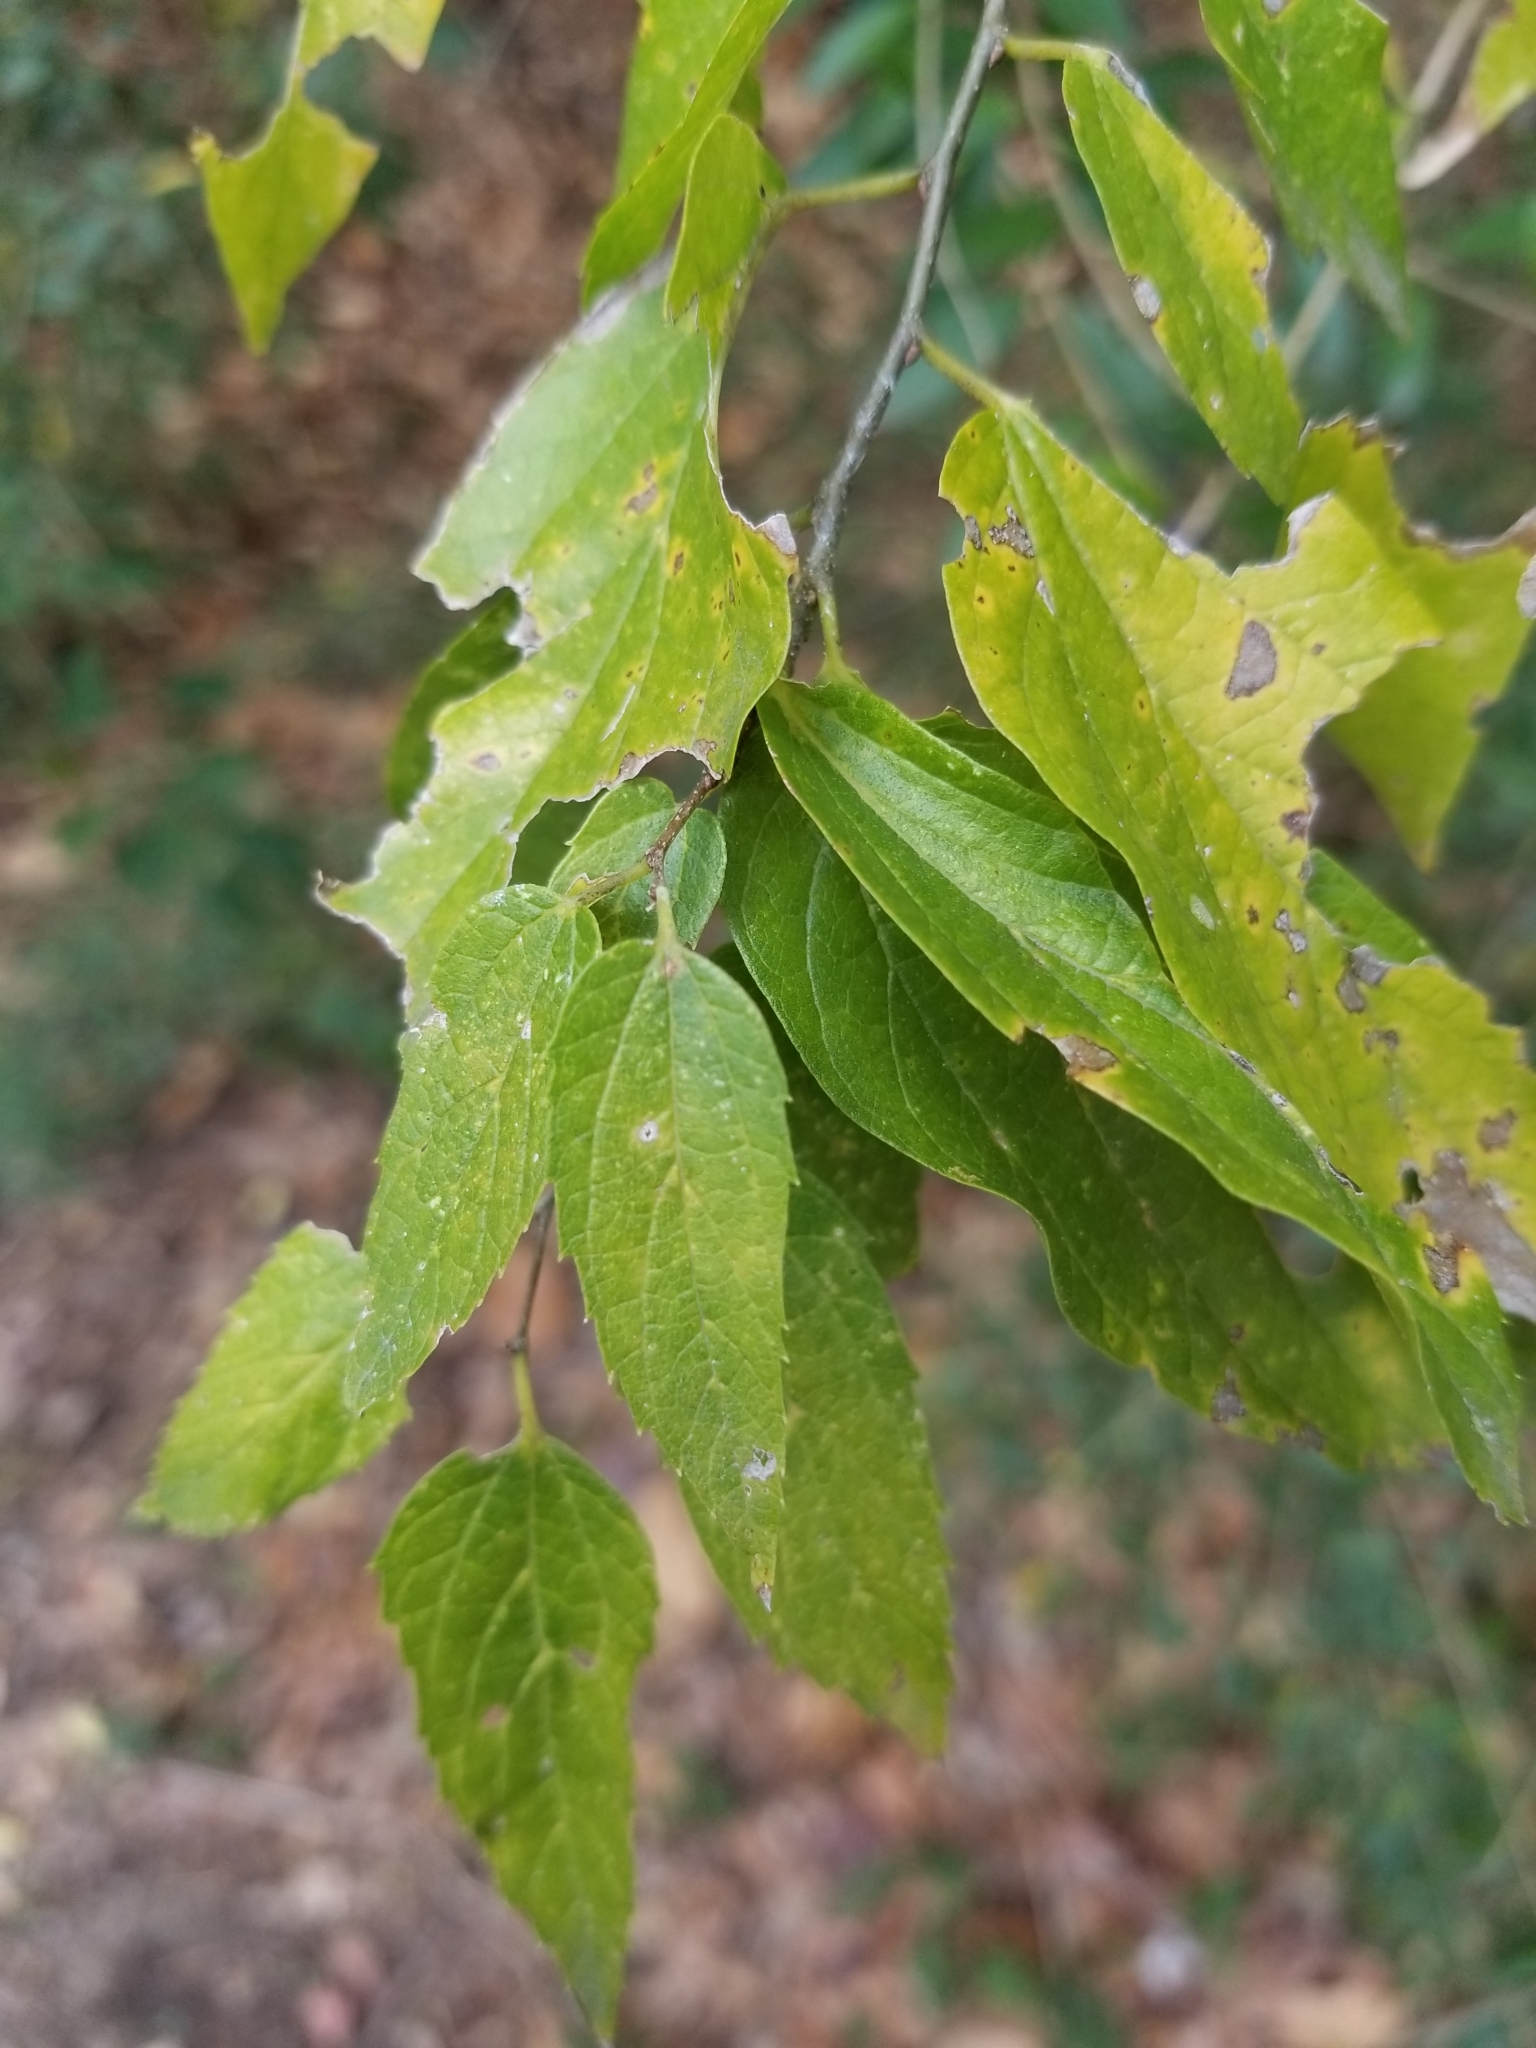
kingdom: Plantae
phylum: Tracheophyta
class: Magnoliopsida
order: Rosales
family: Cannabaceae
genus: Celtis
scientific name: Celtis laevigata
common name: Sugarberry
